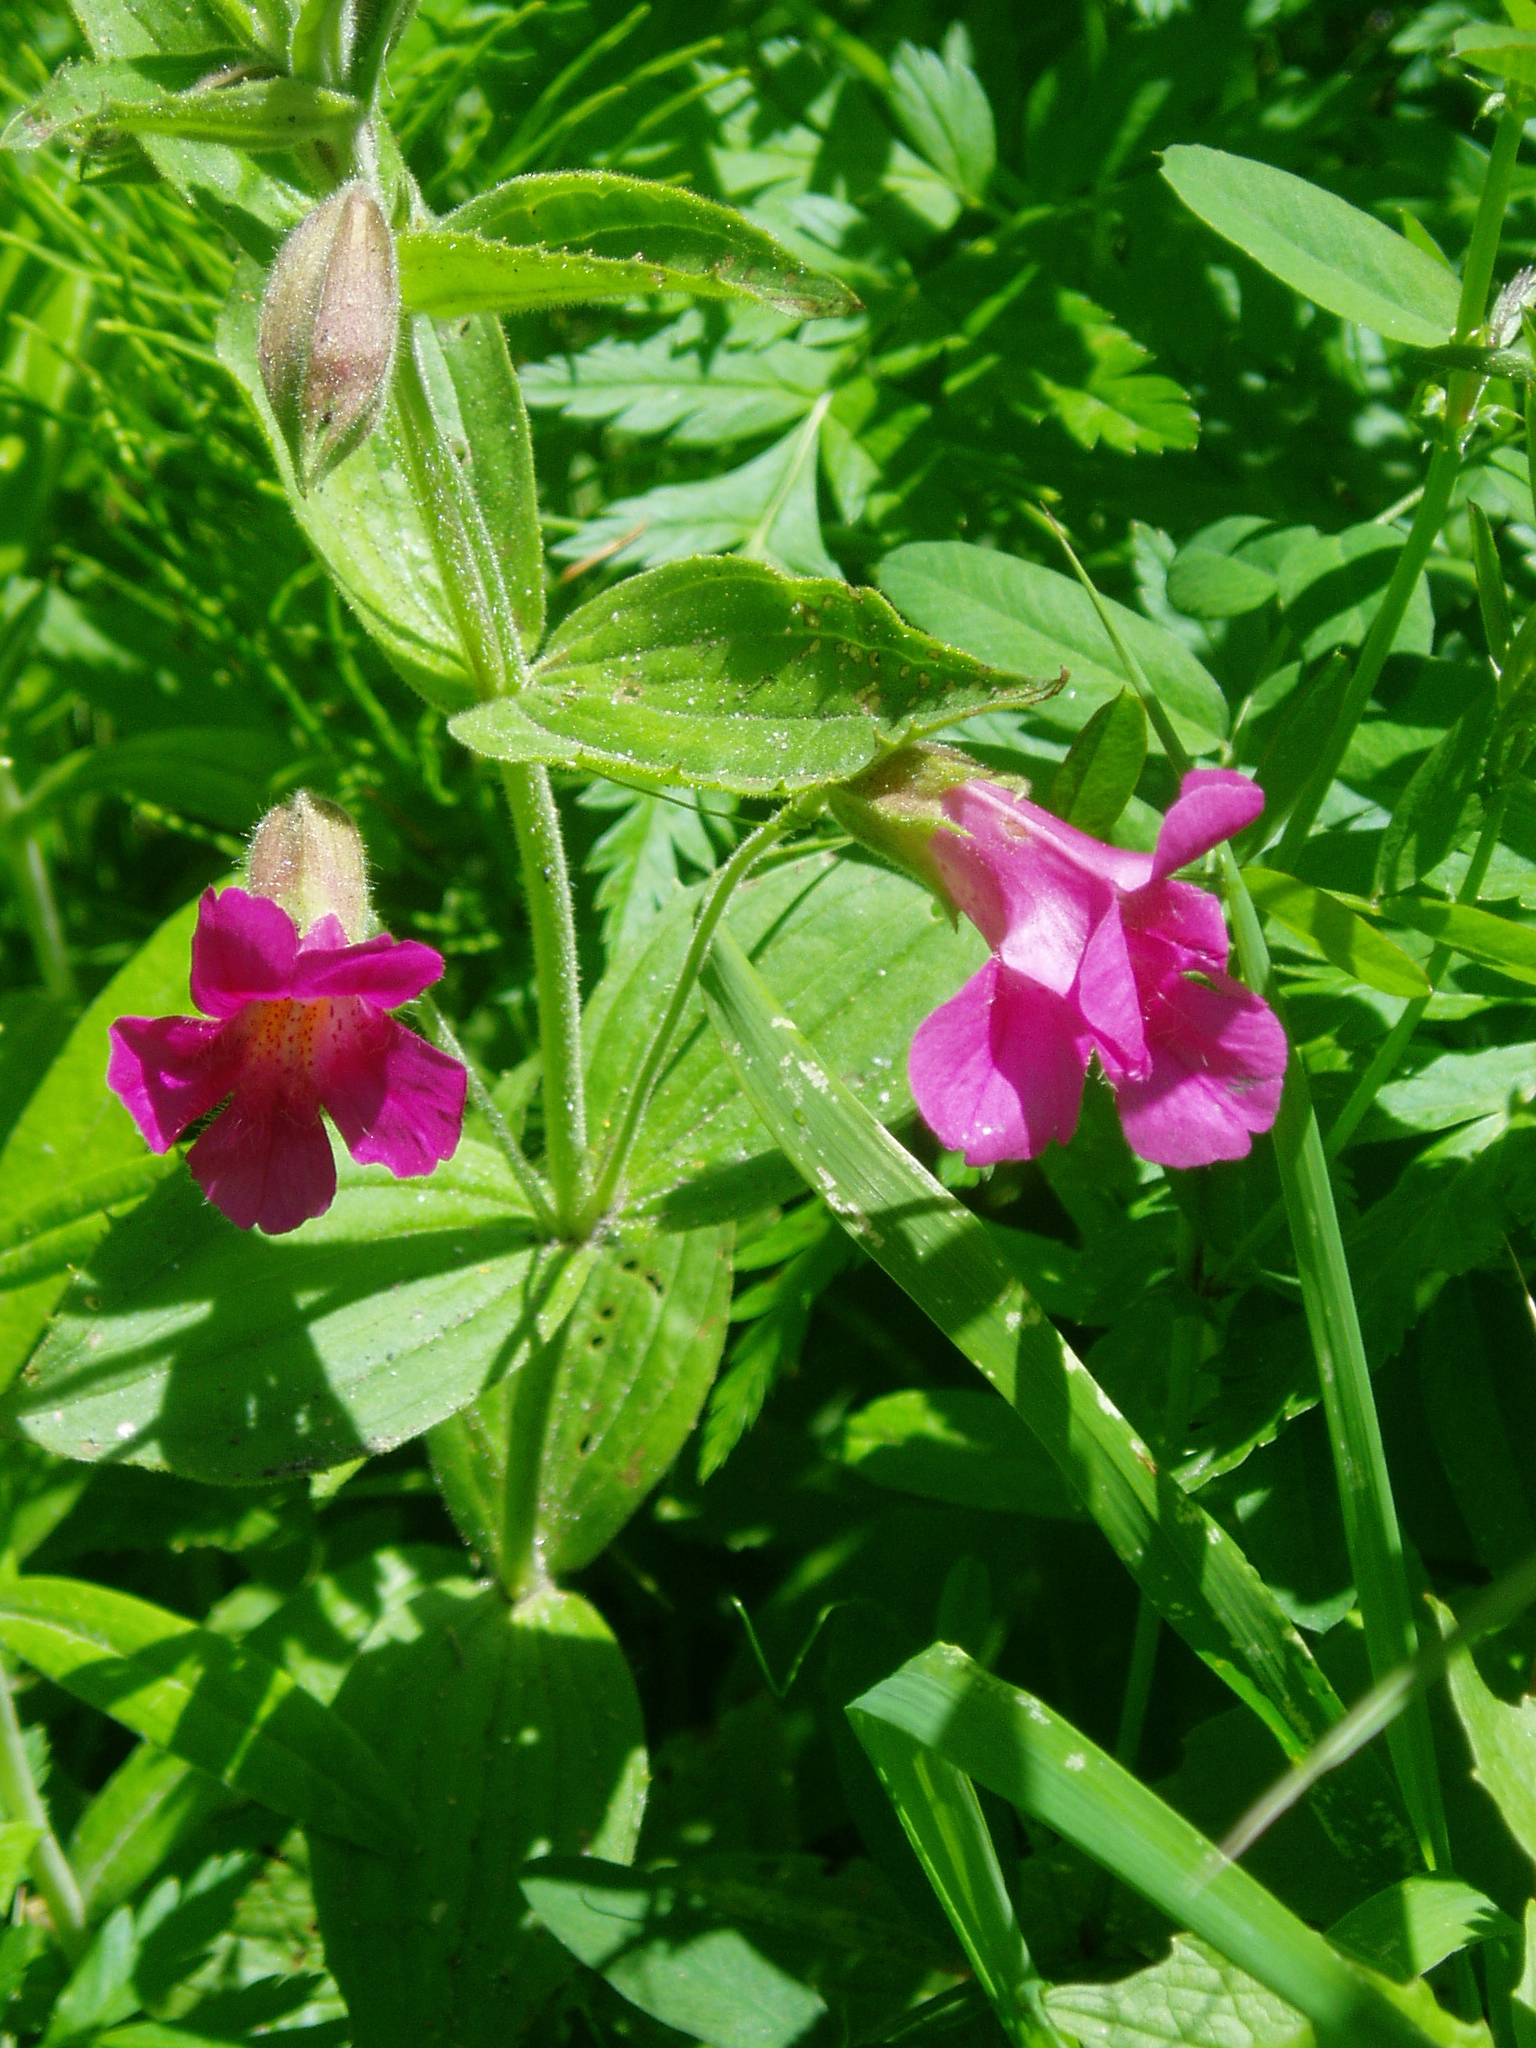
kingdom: Plantae
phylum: Tracheophyta
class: Magnoliopsida
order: Lamiales
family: Phrymaceae
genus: Erythranthe
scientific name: Erythranthe lewisii
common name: Lewis's monkey-flower
